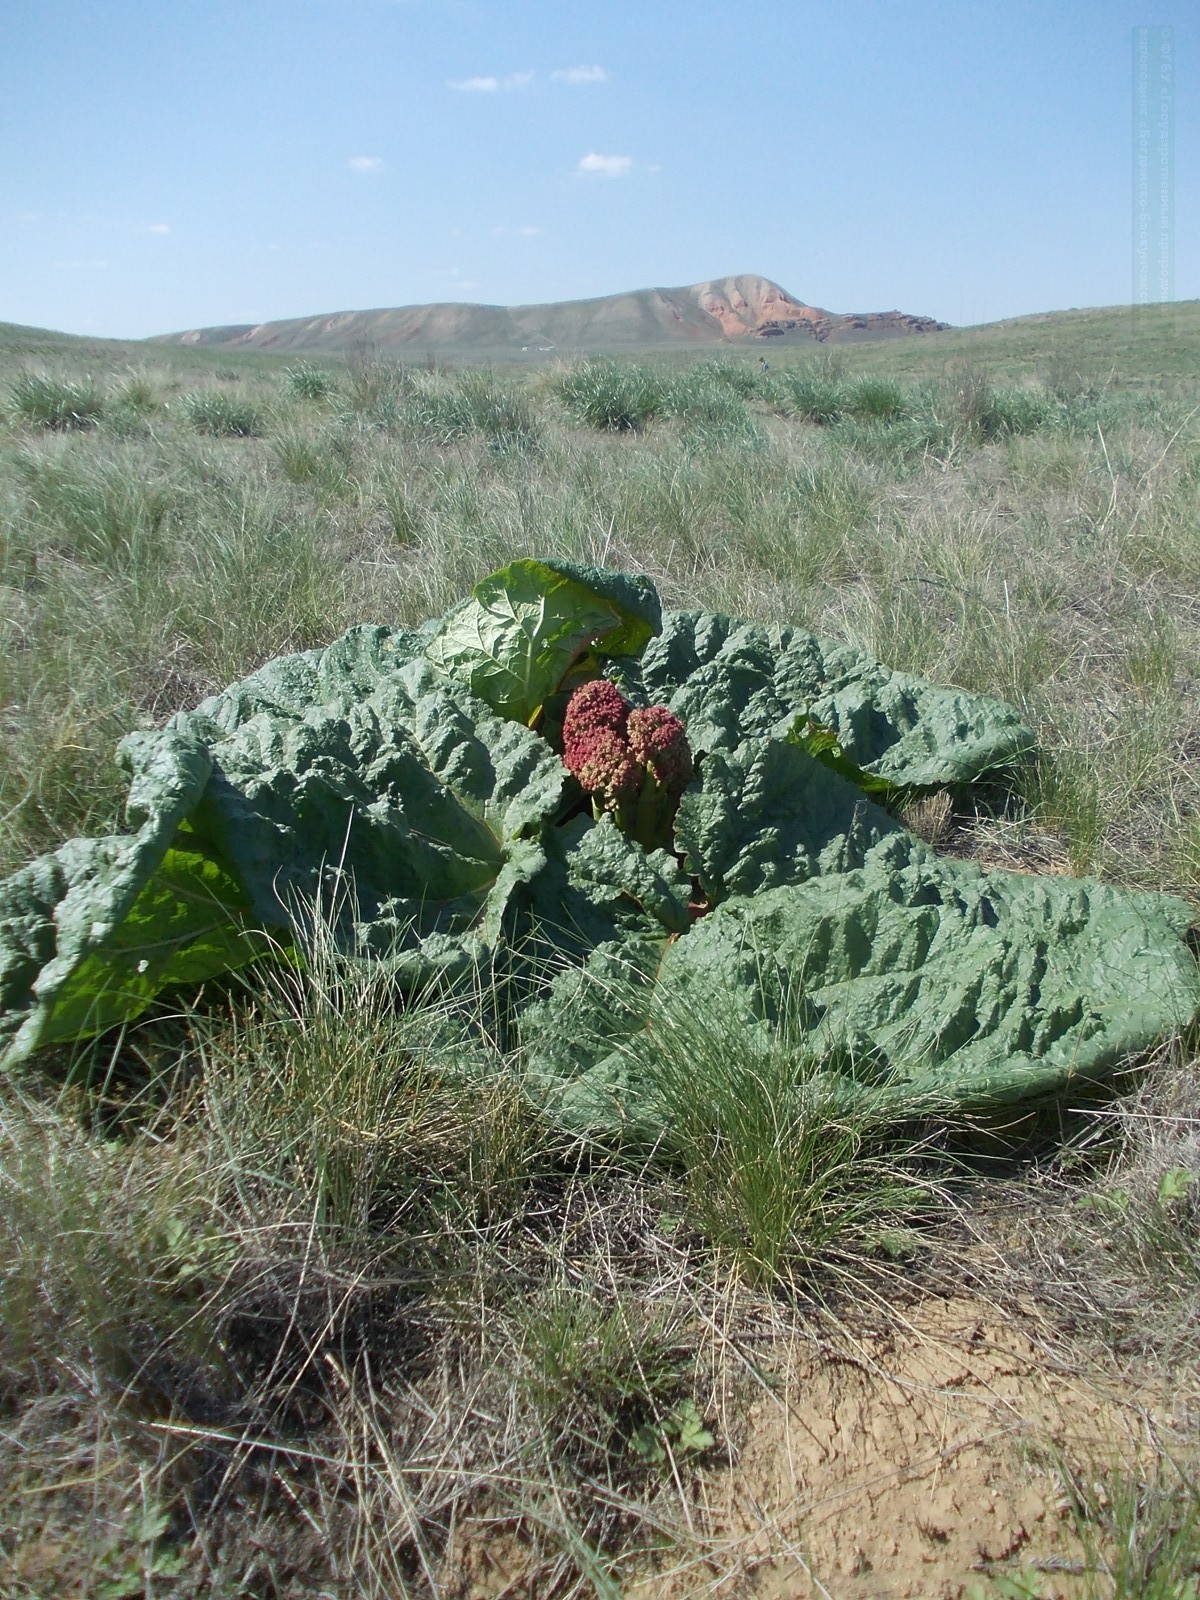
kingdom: Plantae
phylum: Tracheophyta
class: Magnoliopsida
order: Caryophyllales
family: Polygonaceae
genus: Rheum
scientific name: Rheum tataricum
